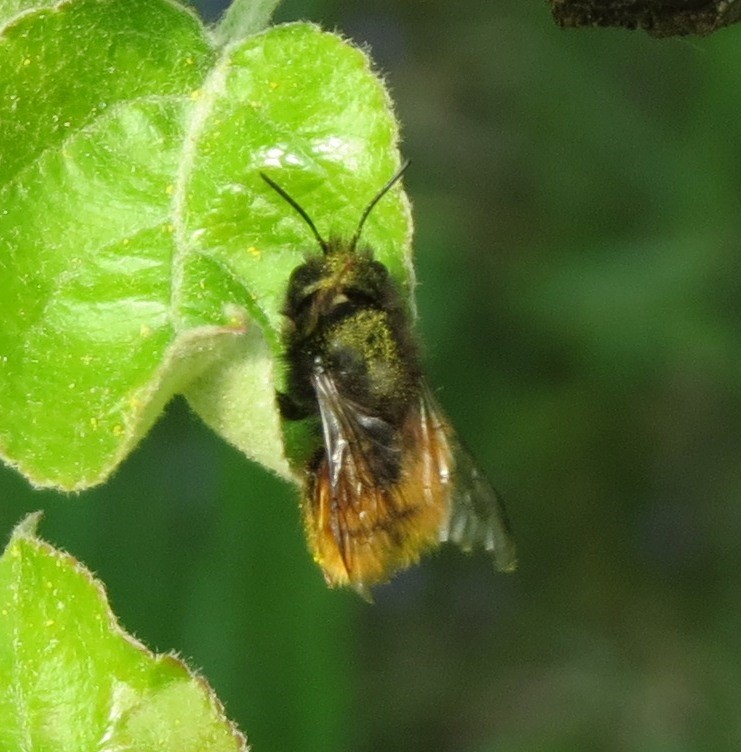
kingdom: Animalia
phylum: Arthropoda
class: Insecta
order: Hymenoptera
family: Megachilidae
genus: Osmia
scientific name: Osmia cornuta
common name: Mason bee
